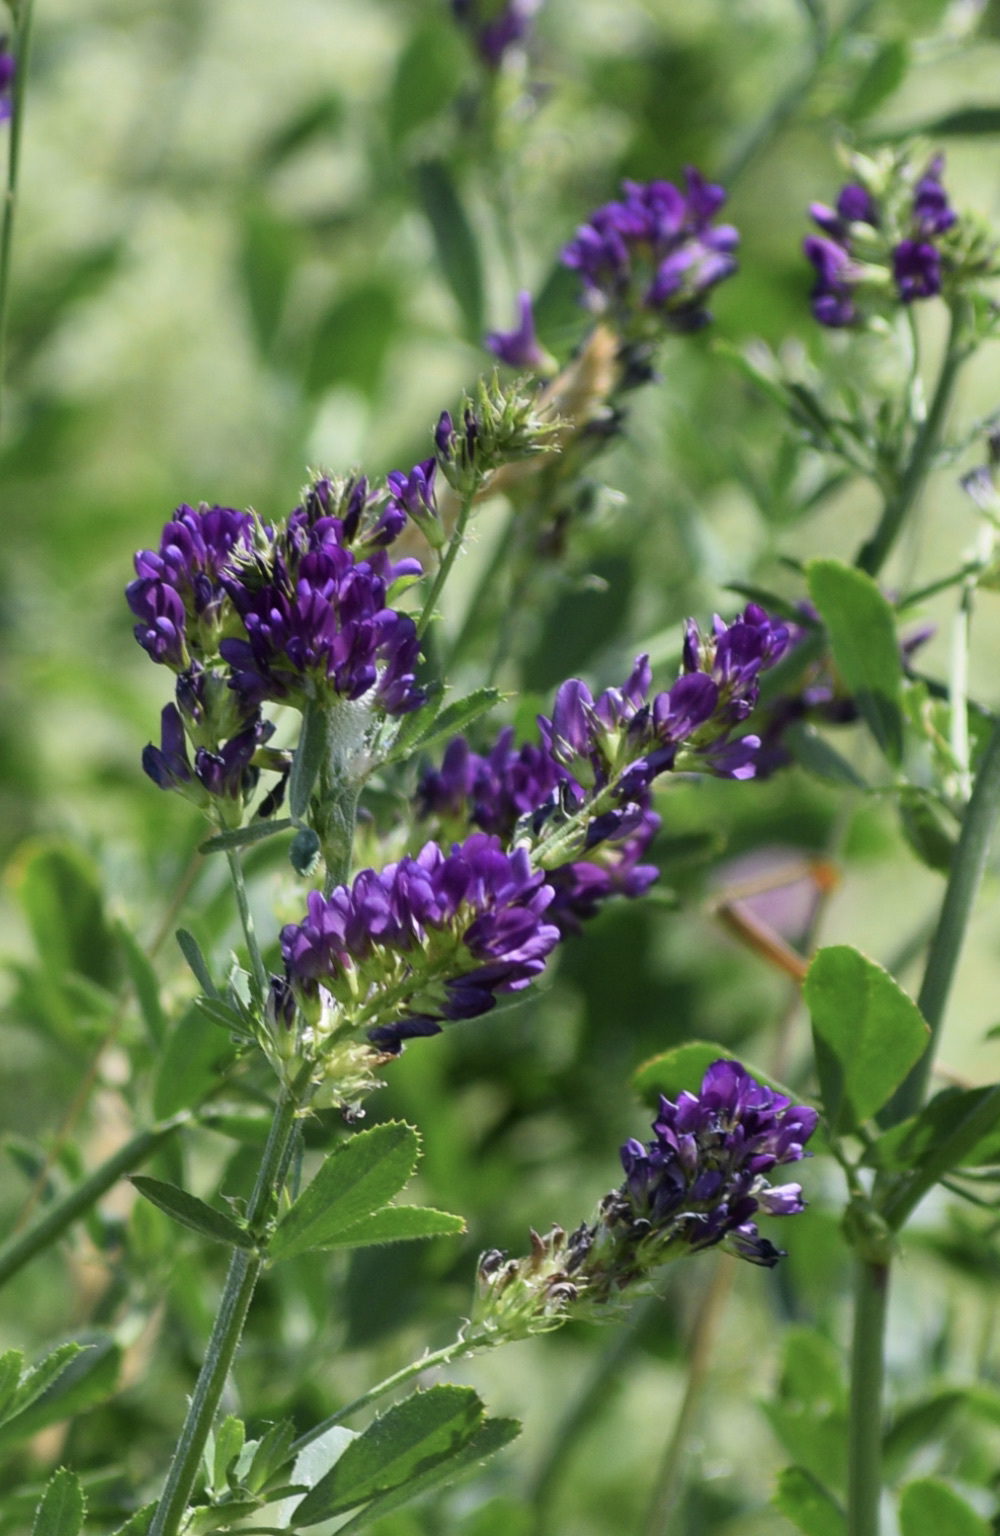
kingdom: Plantae
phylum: Tracheophyta
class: Magnoliopsida
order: Fabales
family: Fabaceae
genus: Medicago
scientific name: Medicago sativa
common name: Alfalfa
